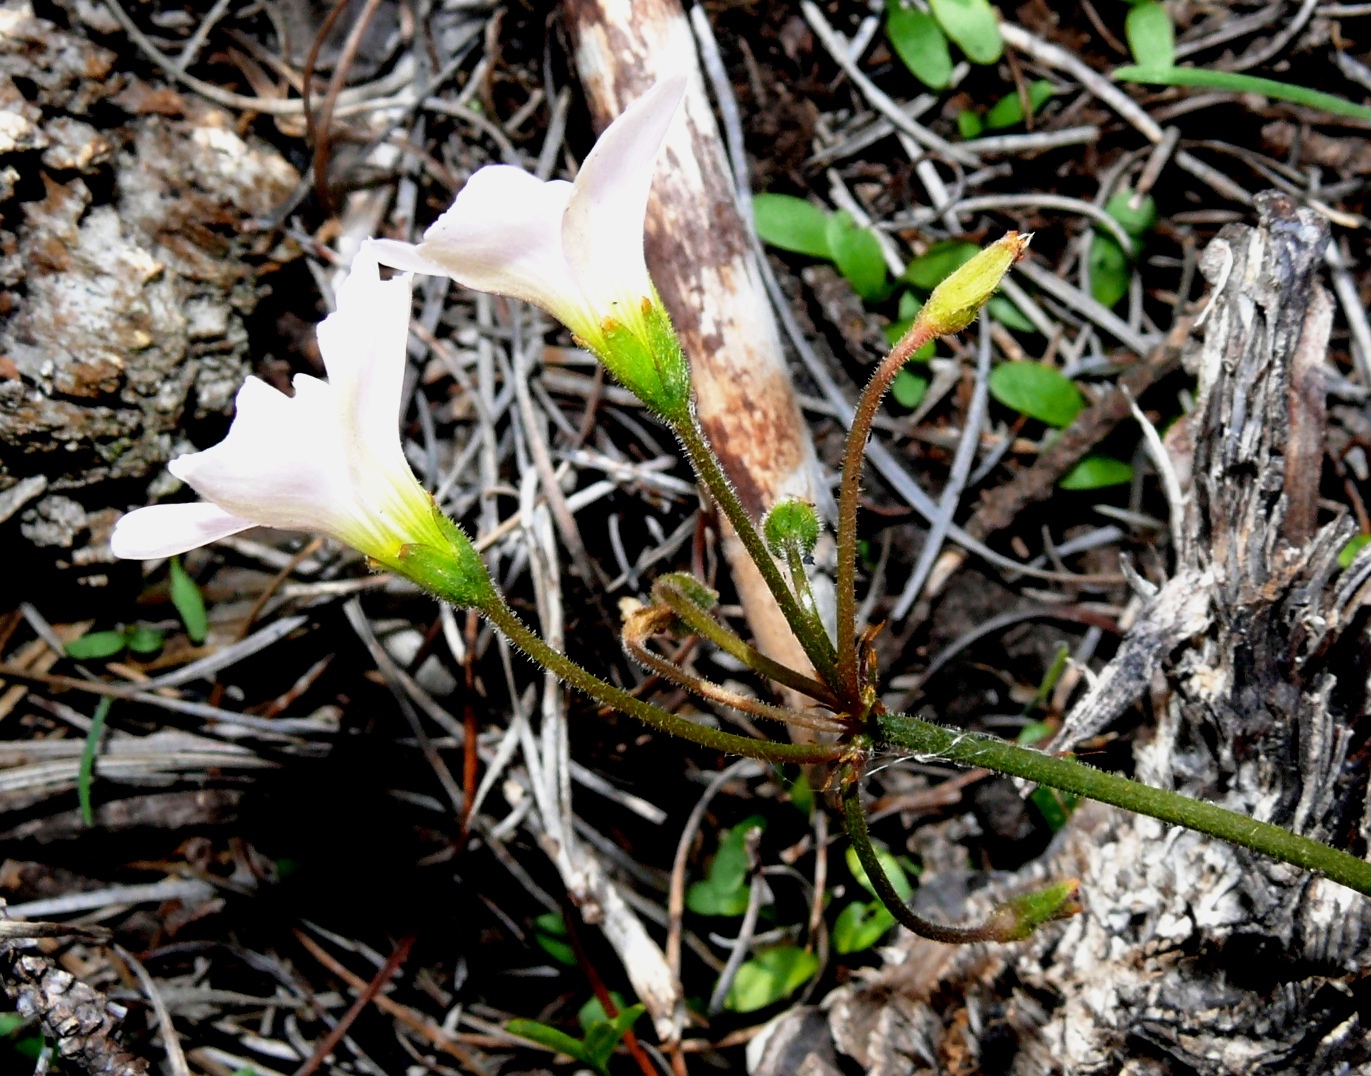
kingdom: Plantae
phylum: Tracheophyta
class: Magnoliopsida
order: Oxalidales
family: Oxalidaceae
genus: Oxalis
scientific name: Oxalis
